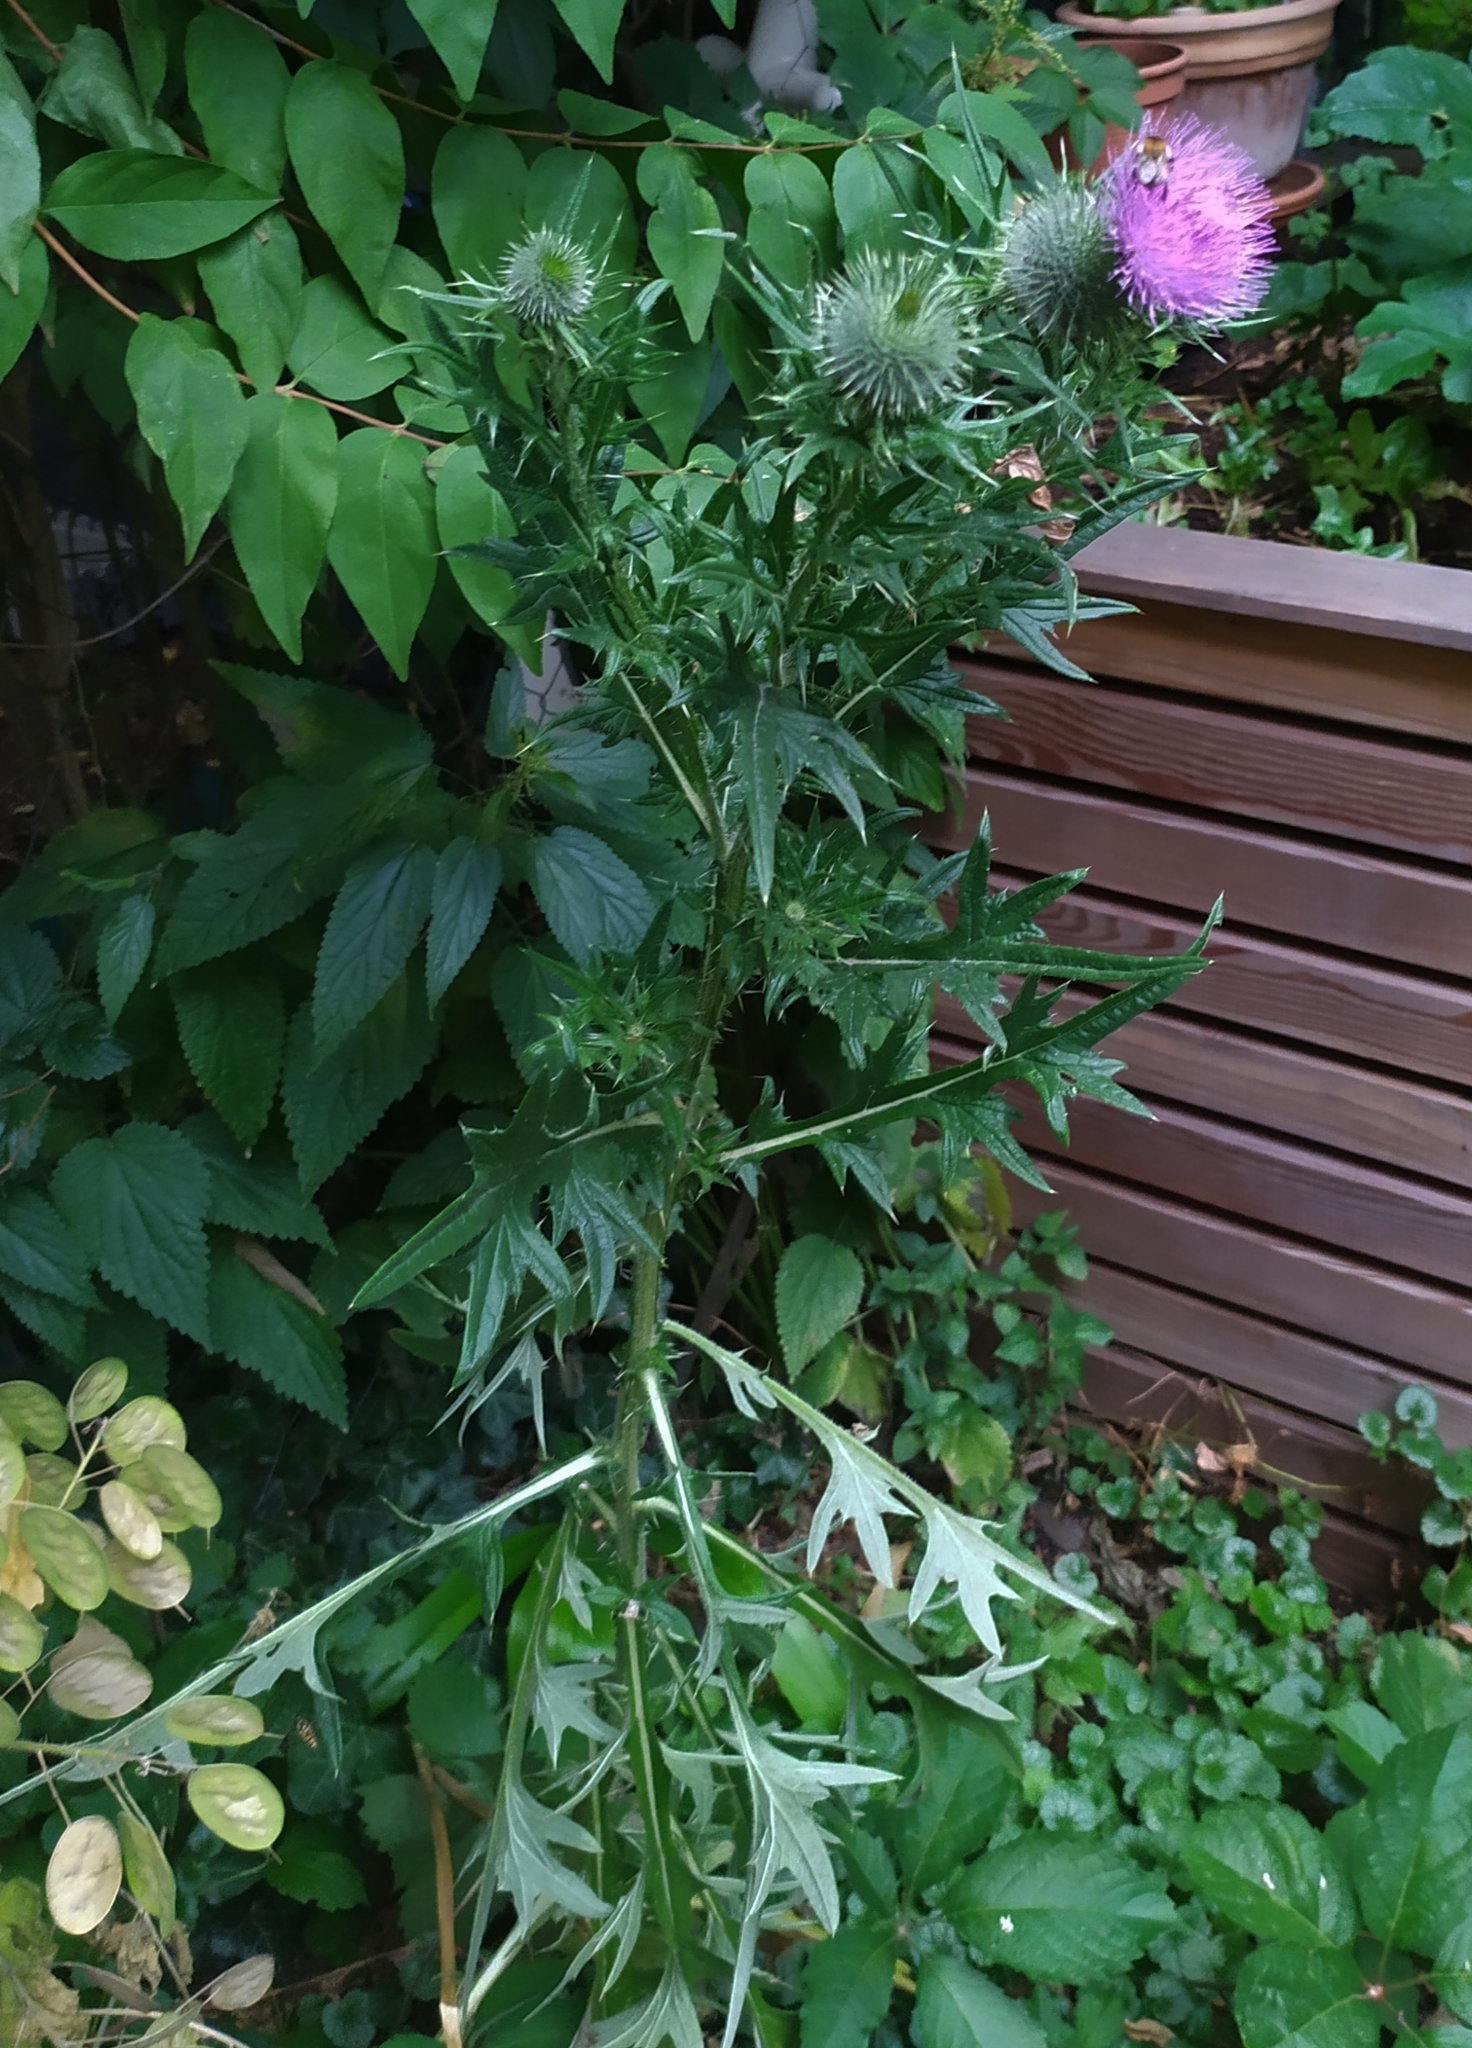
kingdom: Plantae
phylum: Tracheophyta
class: Magnoliopsida
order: Asterales
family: Asteraceae
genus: Cirsium
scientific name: Cirsium vulgare
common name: Bull thistle
